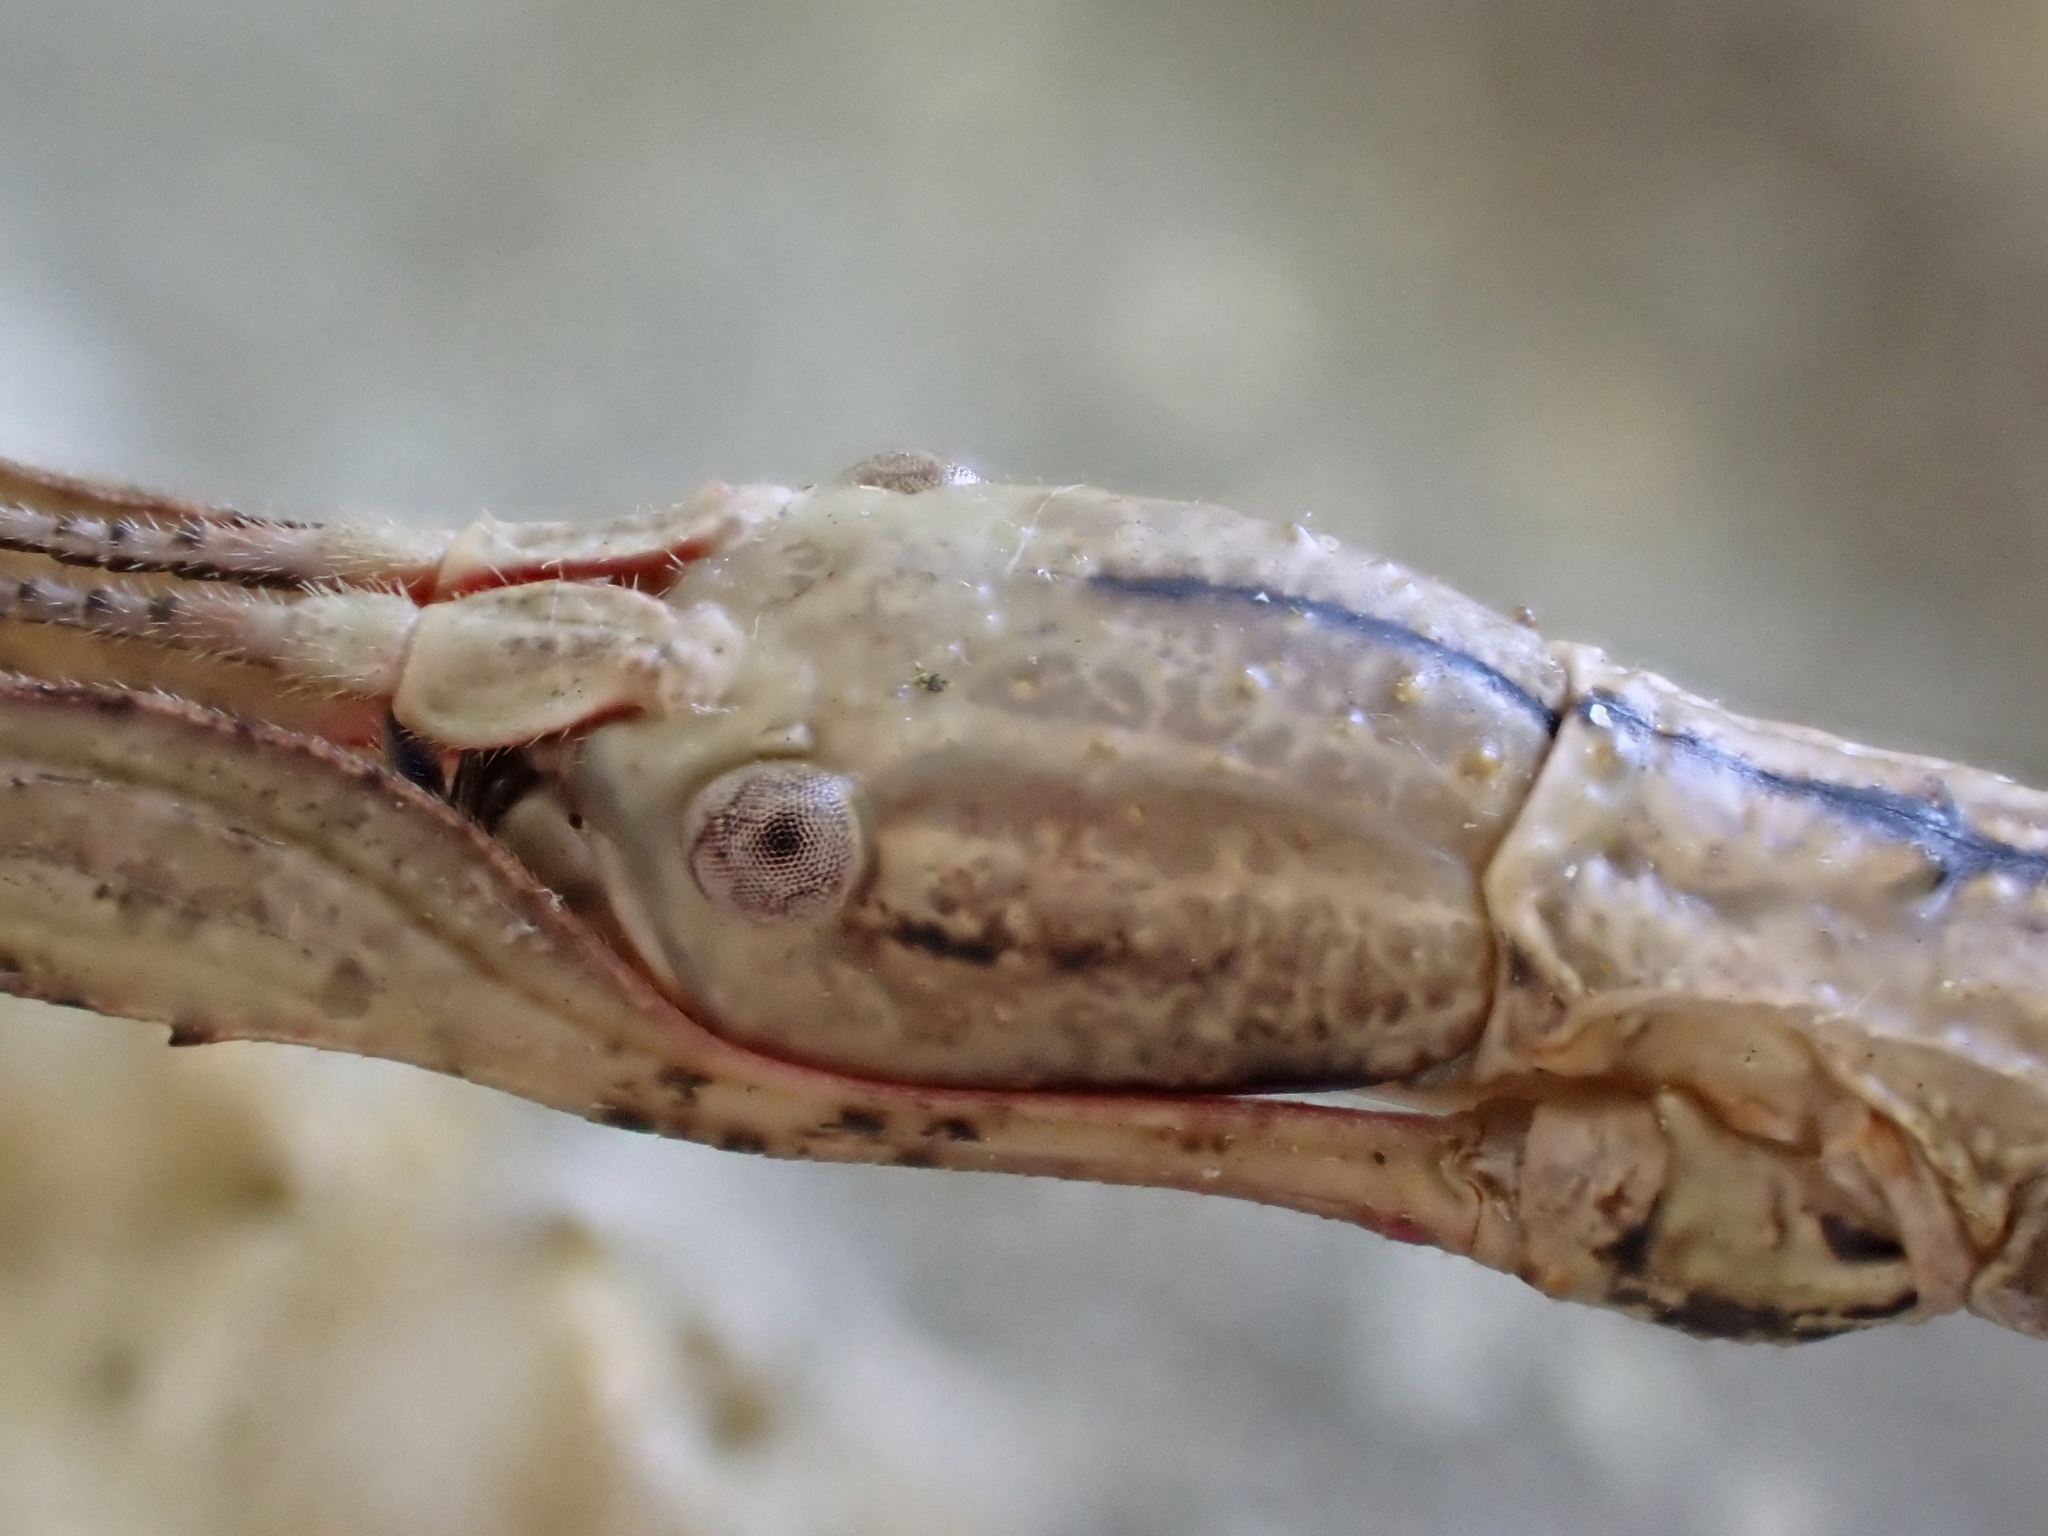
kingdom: Animalia
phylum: Arthropoda
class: Insecta
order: Phasmida
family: Phasmatidae
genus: Clitarchus
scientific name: Clitarchus hookeri
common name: Smooth stick insect
